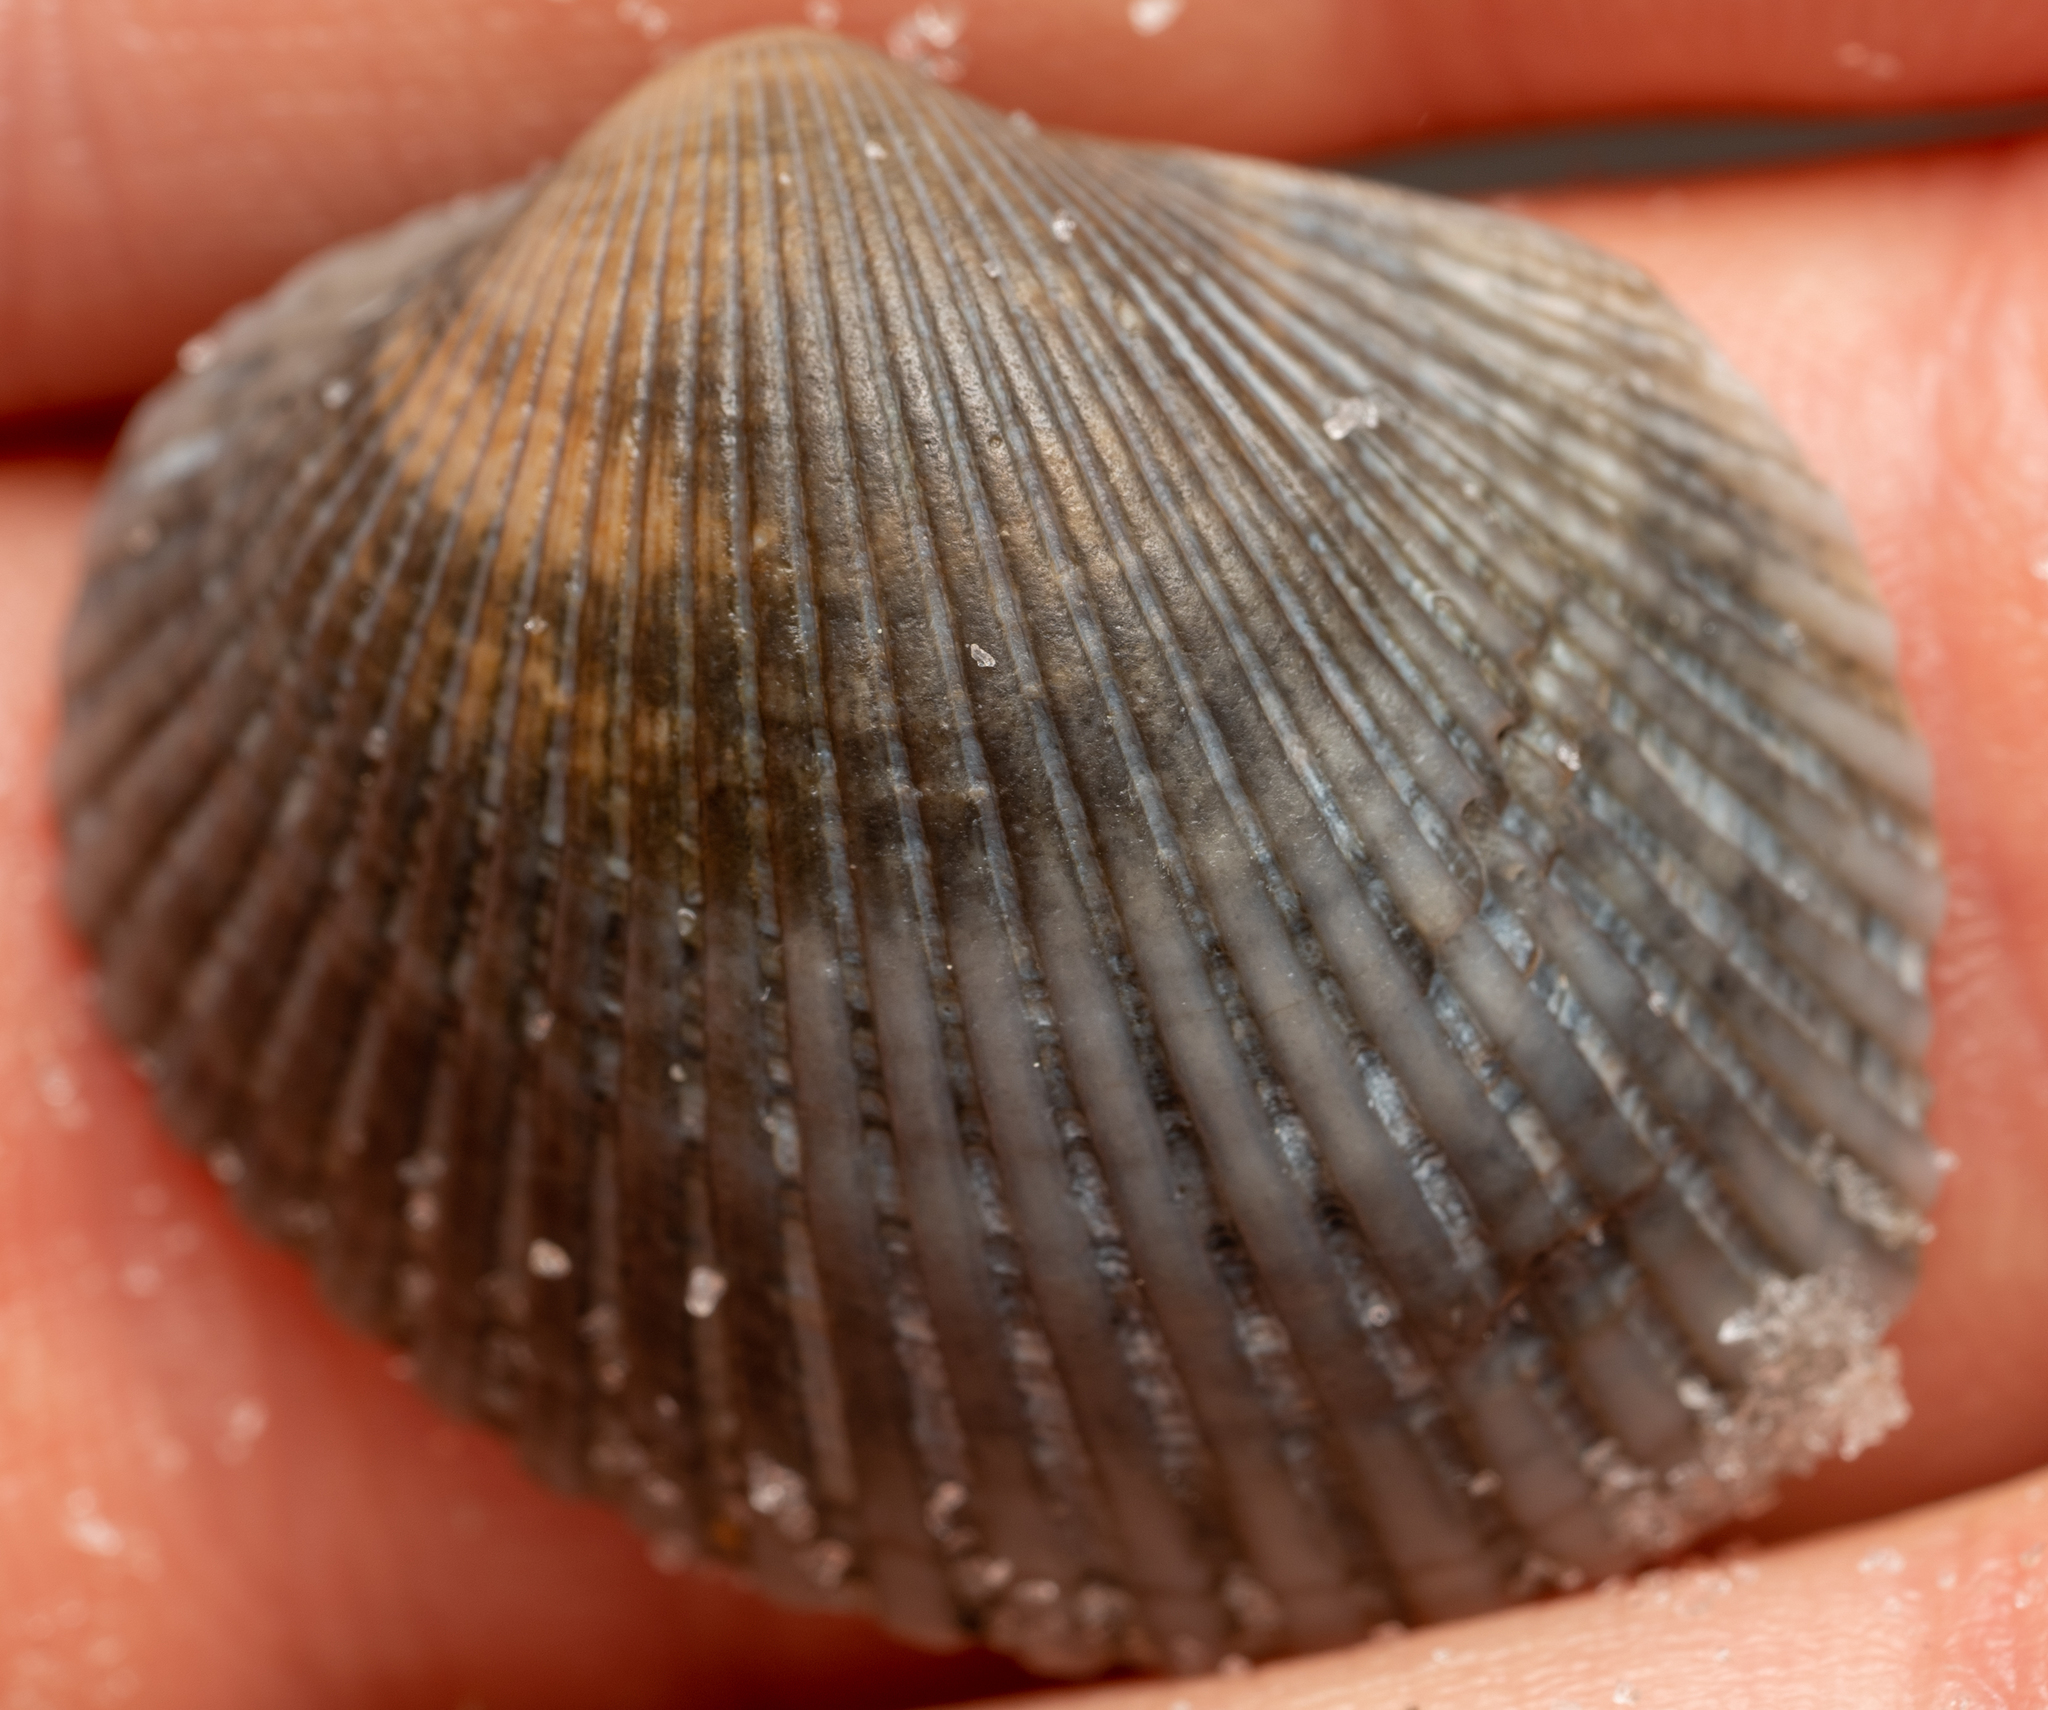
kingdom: Animalia
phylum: Mollusca
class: Bivalvia
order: Arcida
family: Arcidae
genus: Lunarca
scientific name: Lunarca ovalis
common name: Blood ark
